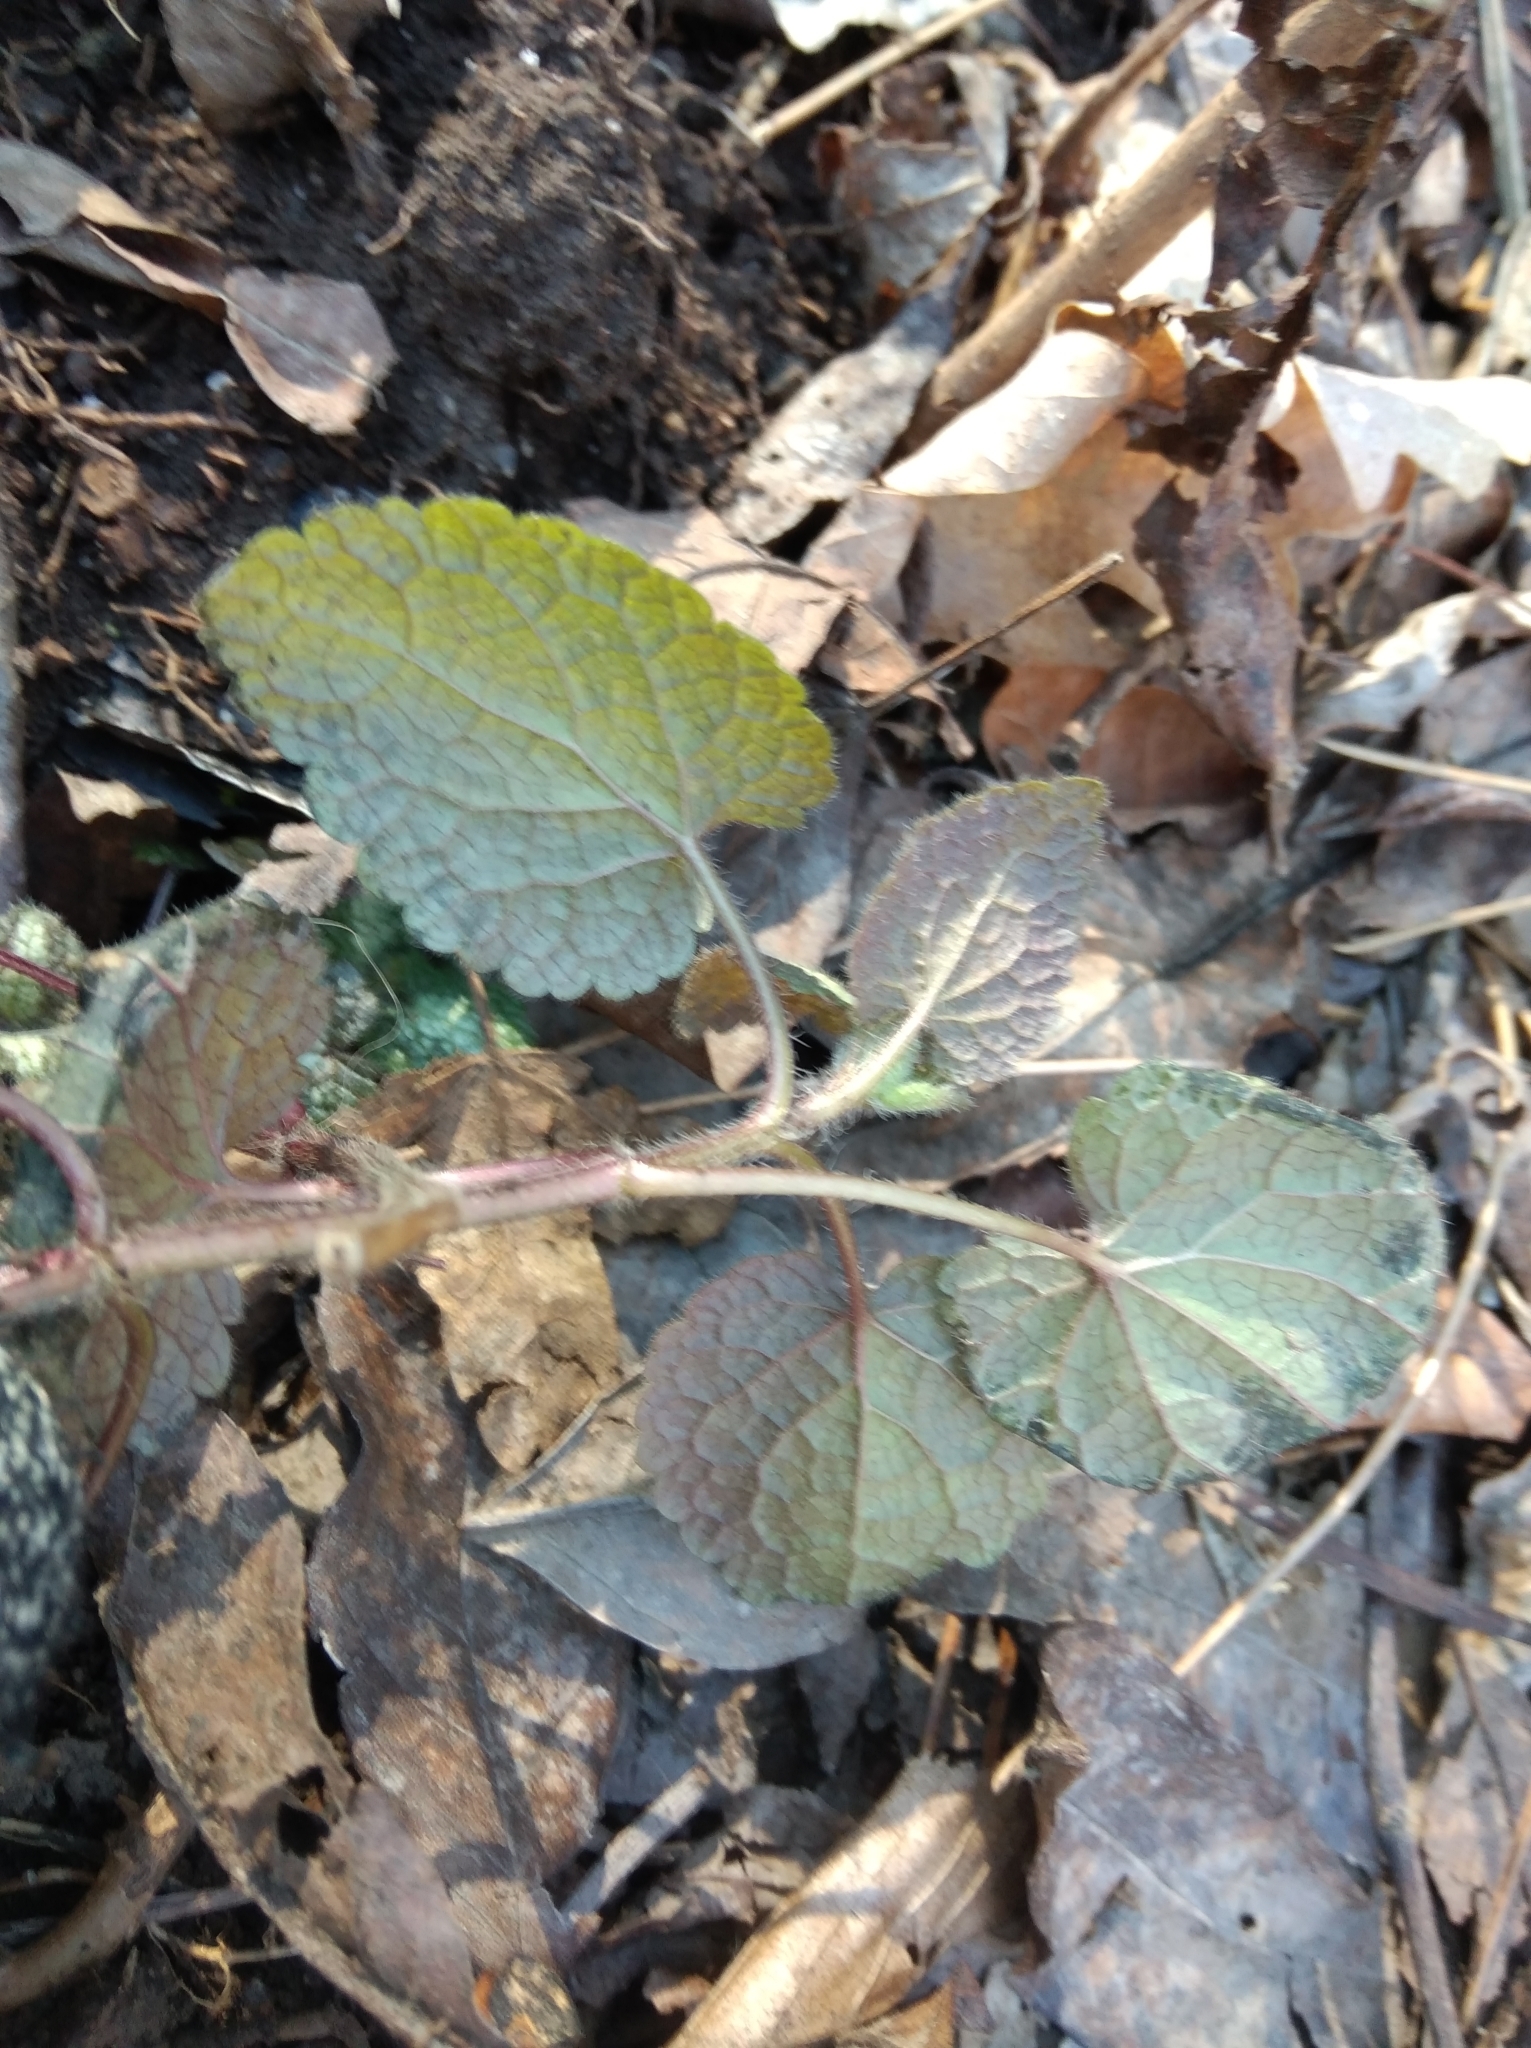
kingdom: Plantae
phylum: Tracheophyta
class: Magnoliopsida
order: Lamiales
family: Lamiaceae
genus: Lamium
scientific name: Lamium maculatum
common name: Spotted dead-nettle
